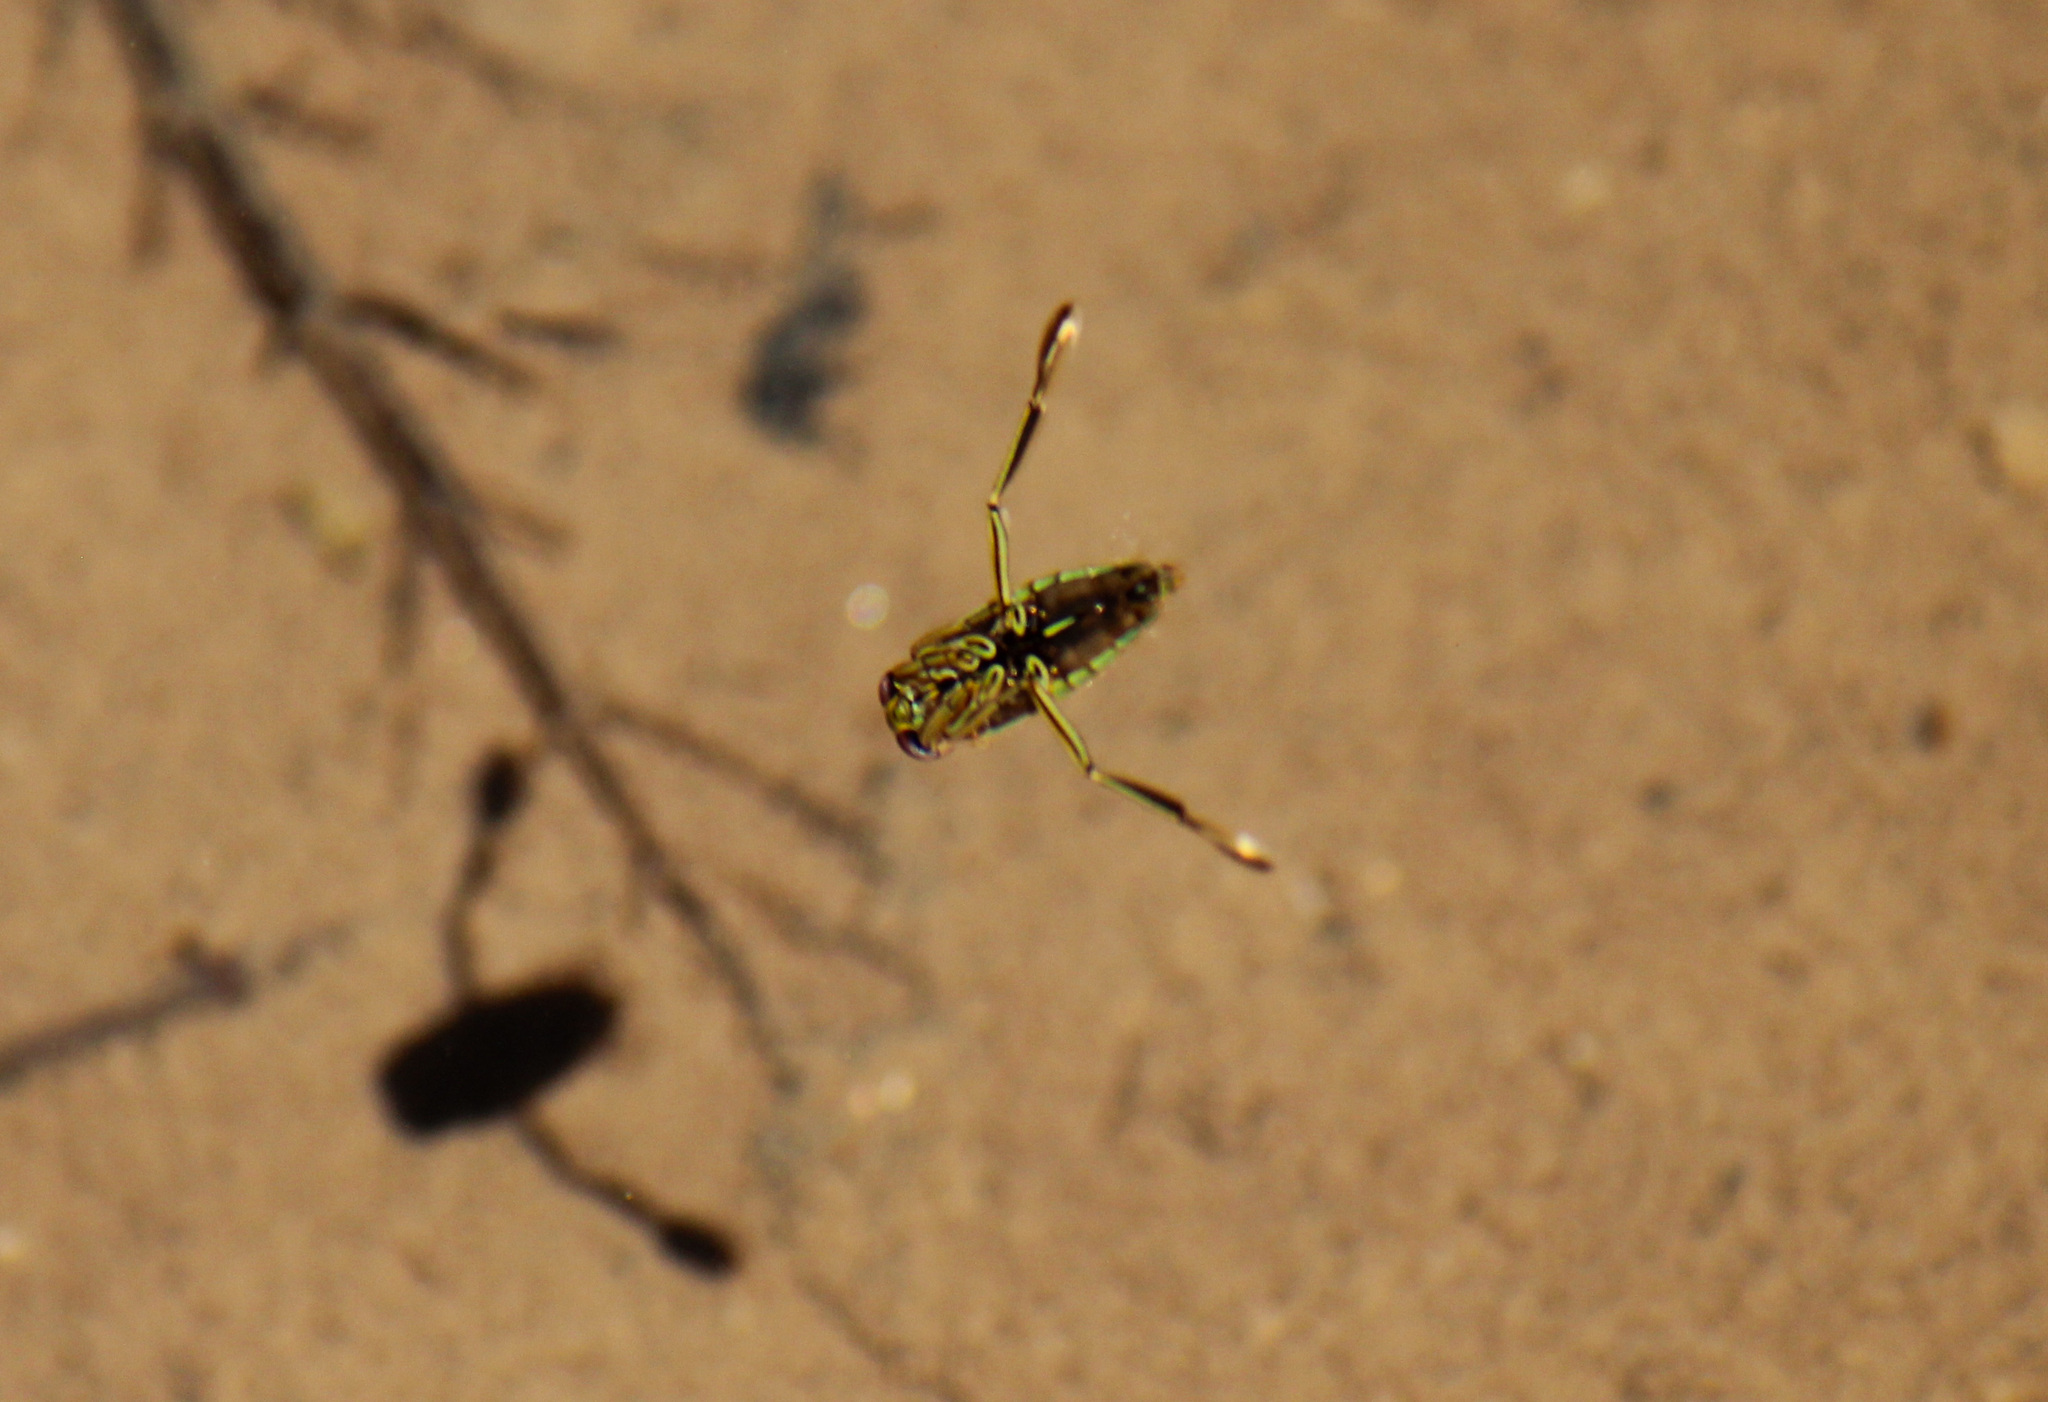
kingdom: Animalia
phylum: Arthropoda
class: Insecta
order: Hemiptera
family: Notonectidae
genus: Notonecta
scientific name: Notonecta
